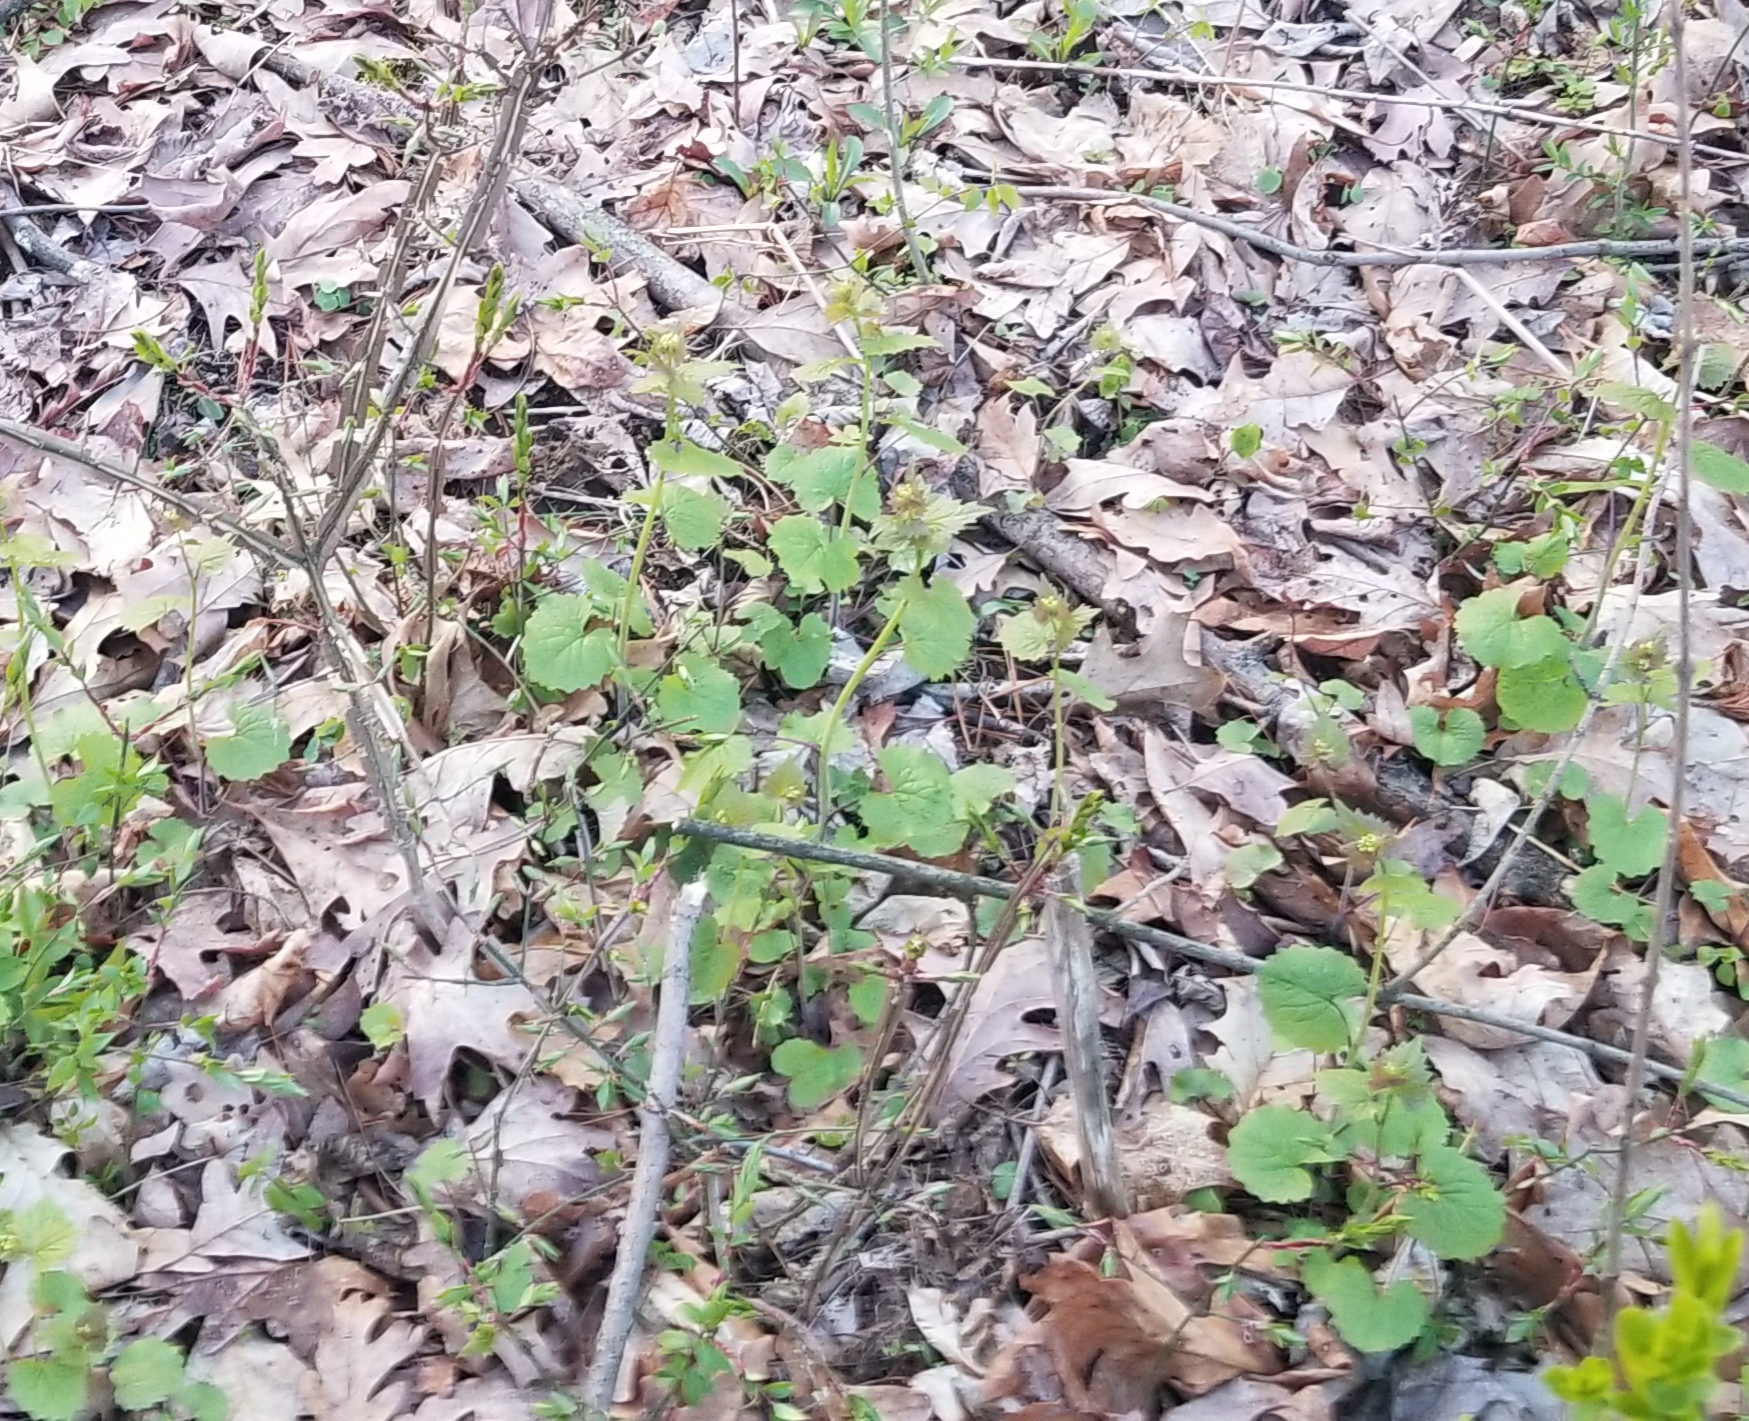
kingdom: Plantae
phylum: Tracheophyta
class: Magnoliopsida
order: Brassicales
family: Brassicaceae
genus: Alliaria
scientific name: Alliaria petiolata
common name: Garlic mustard
